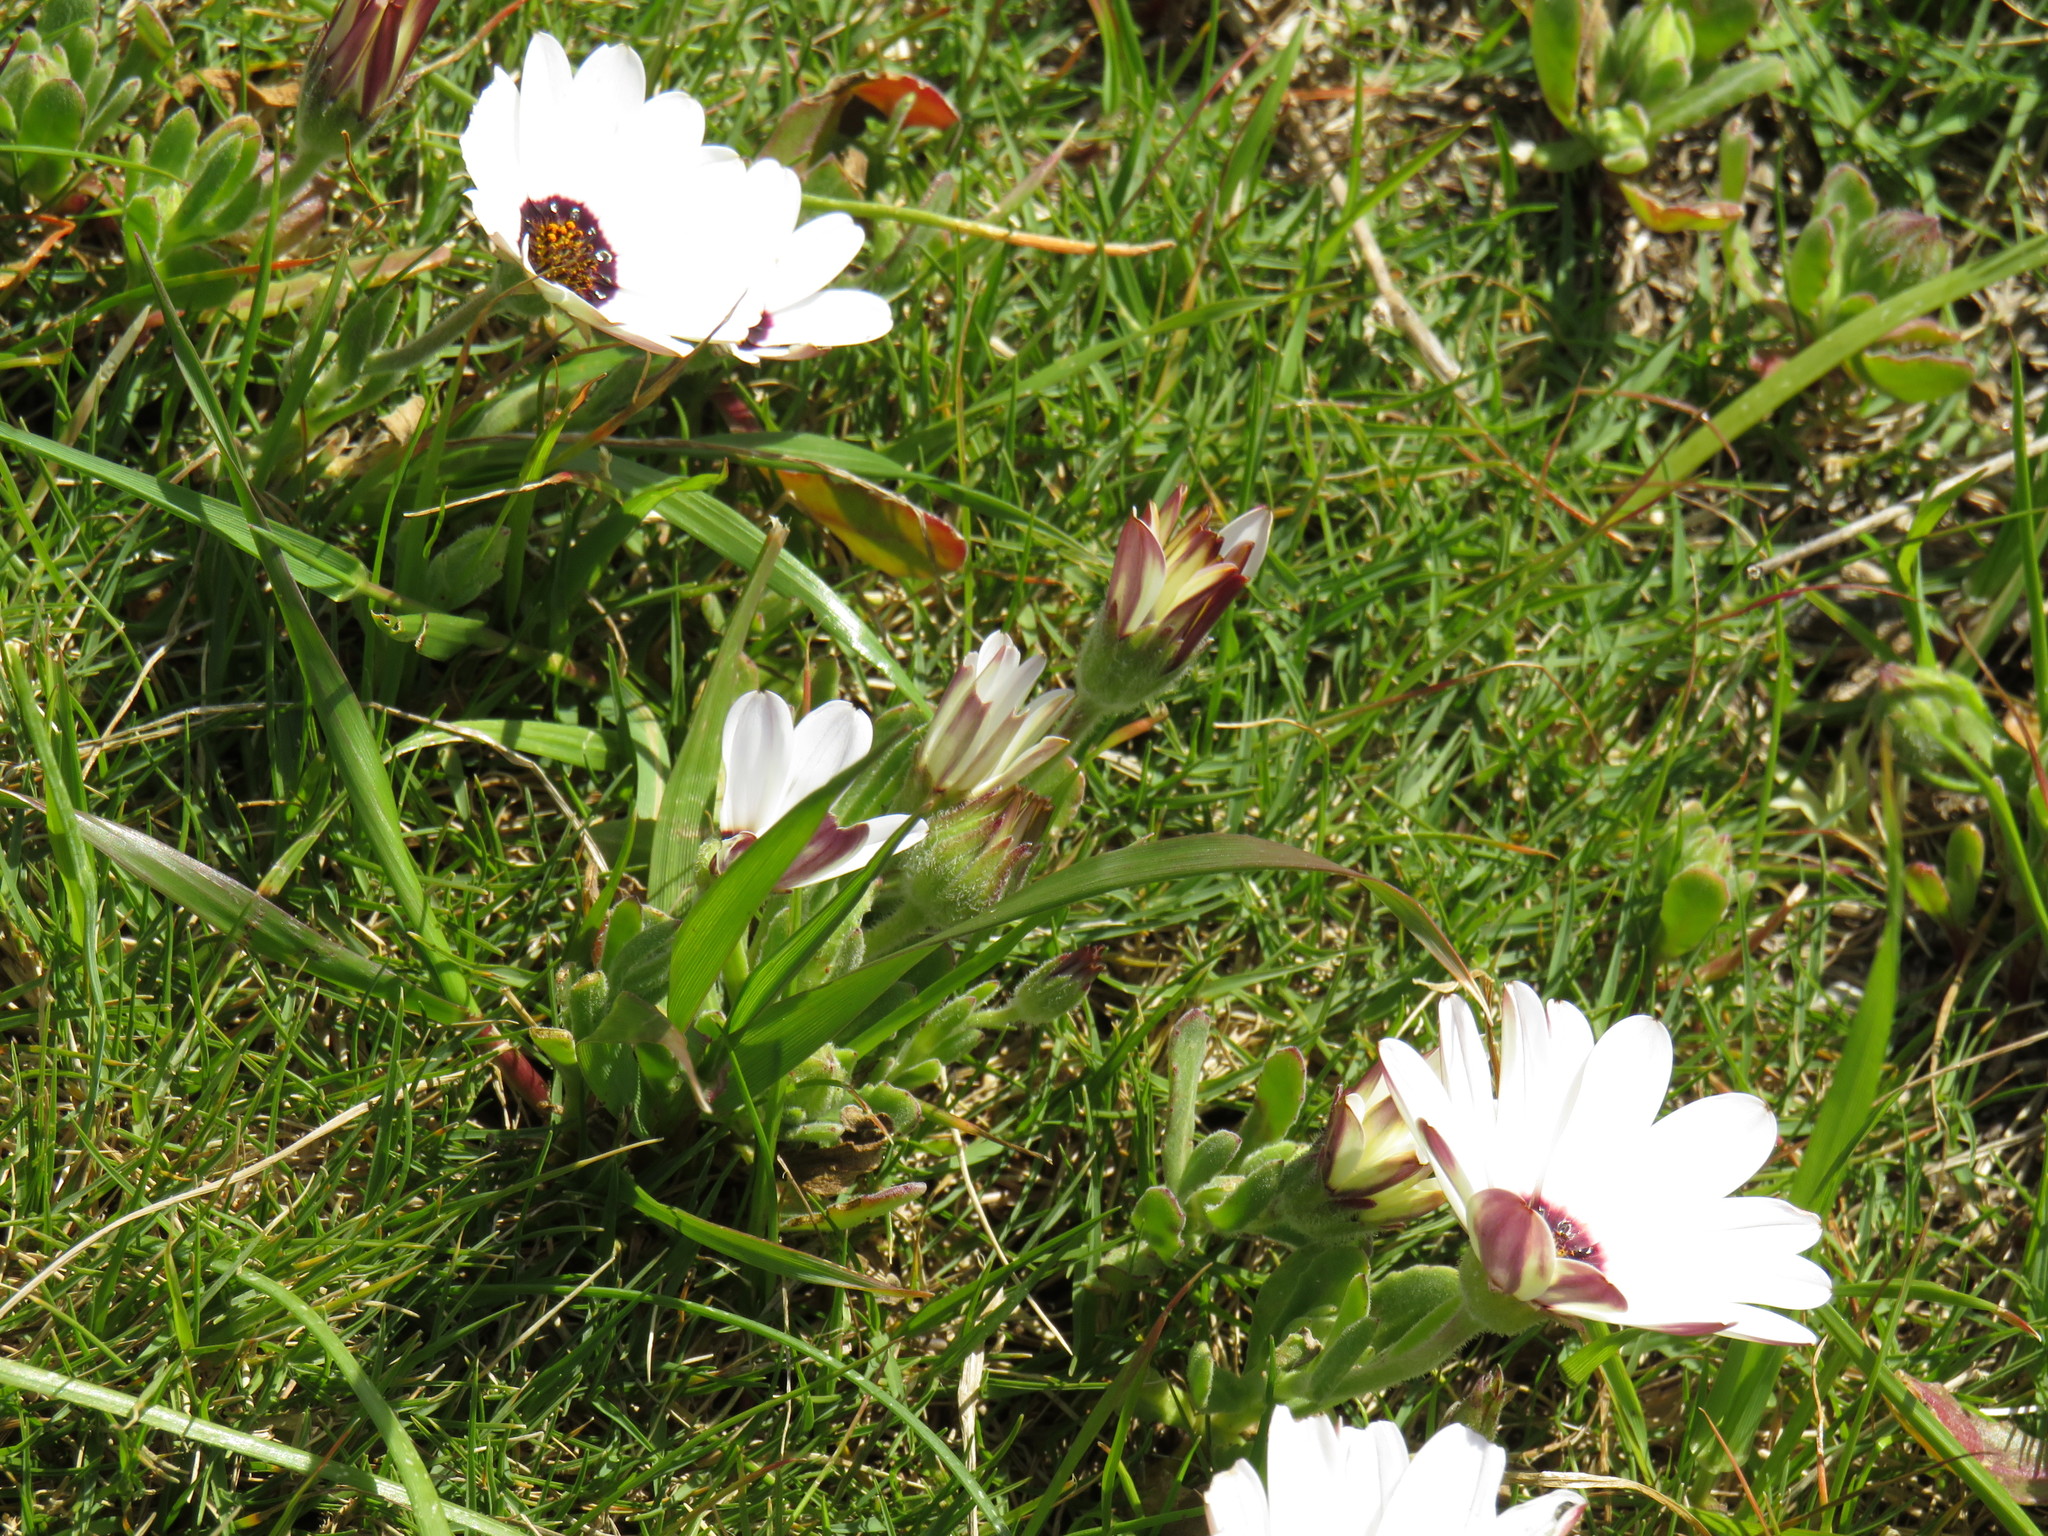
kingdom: Plantae
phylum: Tracheophyta
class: Magnoliopsida
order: Asterales
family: Asteraceae
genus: Dimorphotheca
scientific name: Dimorphotheca pluvialis
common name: Weather prophet
